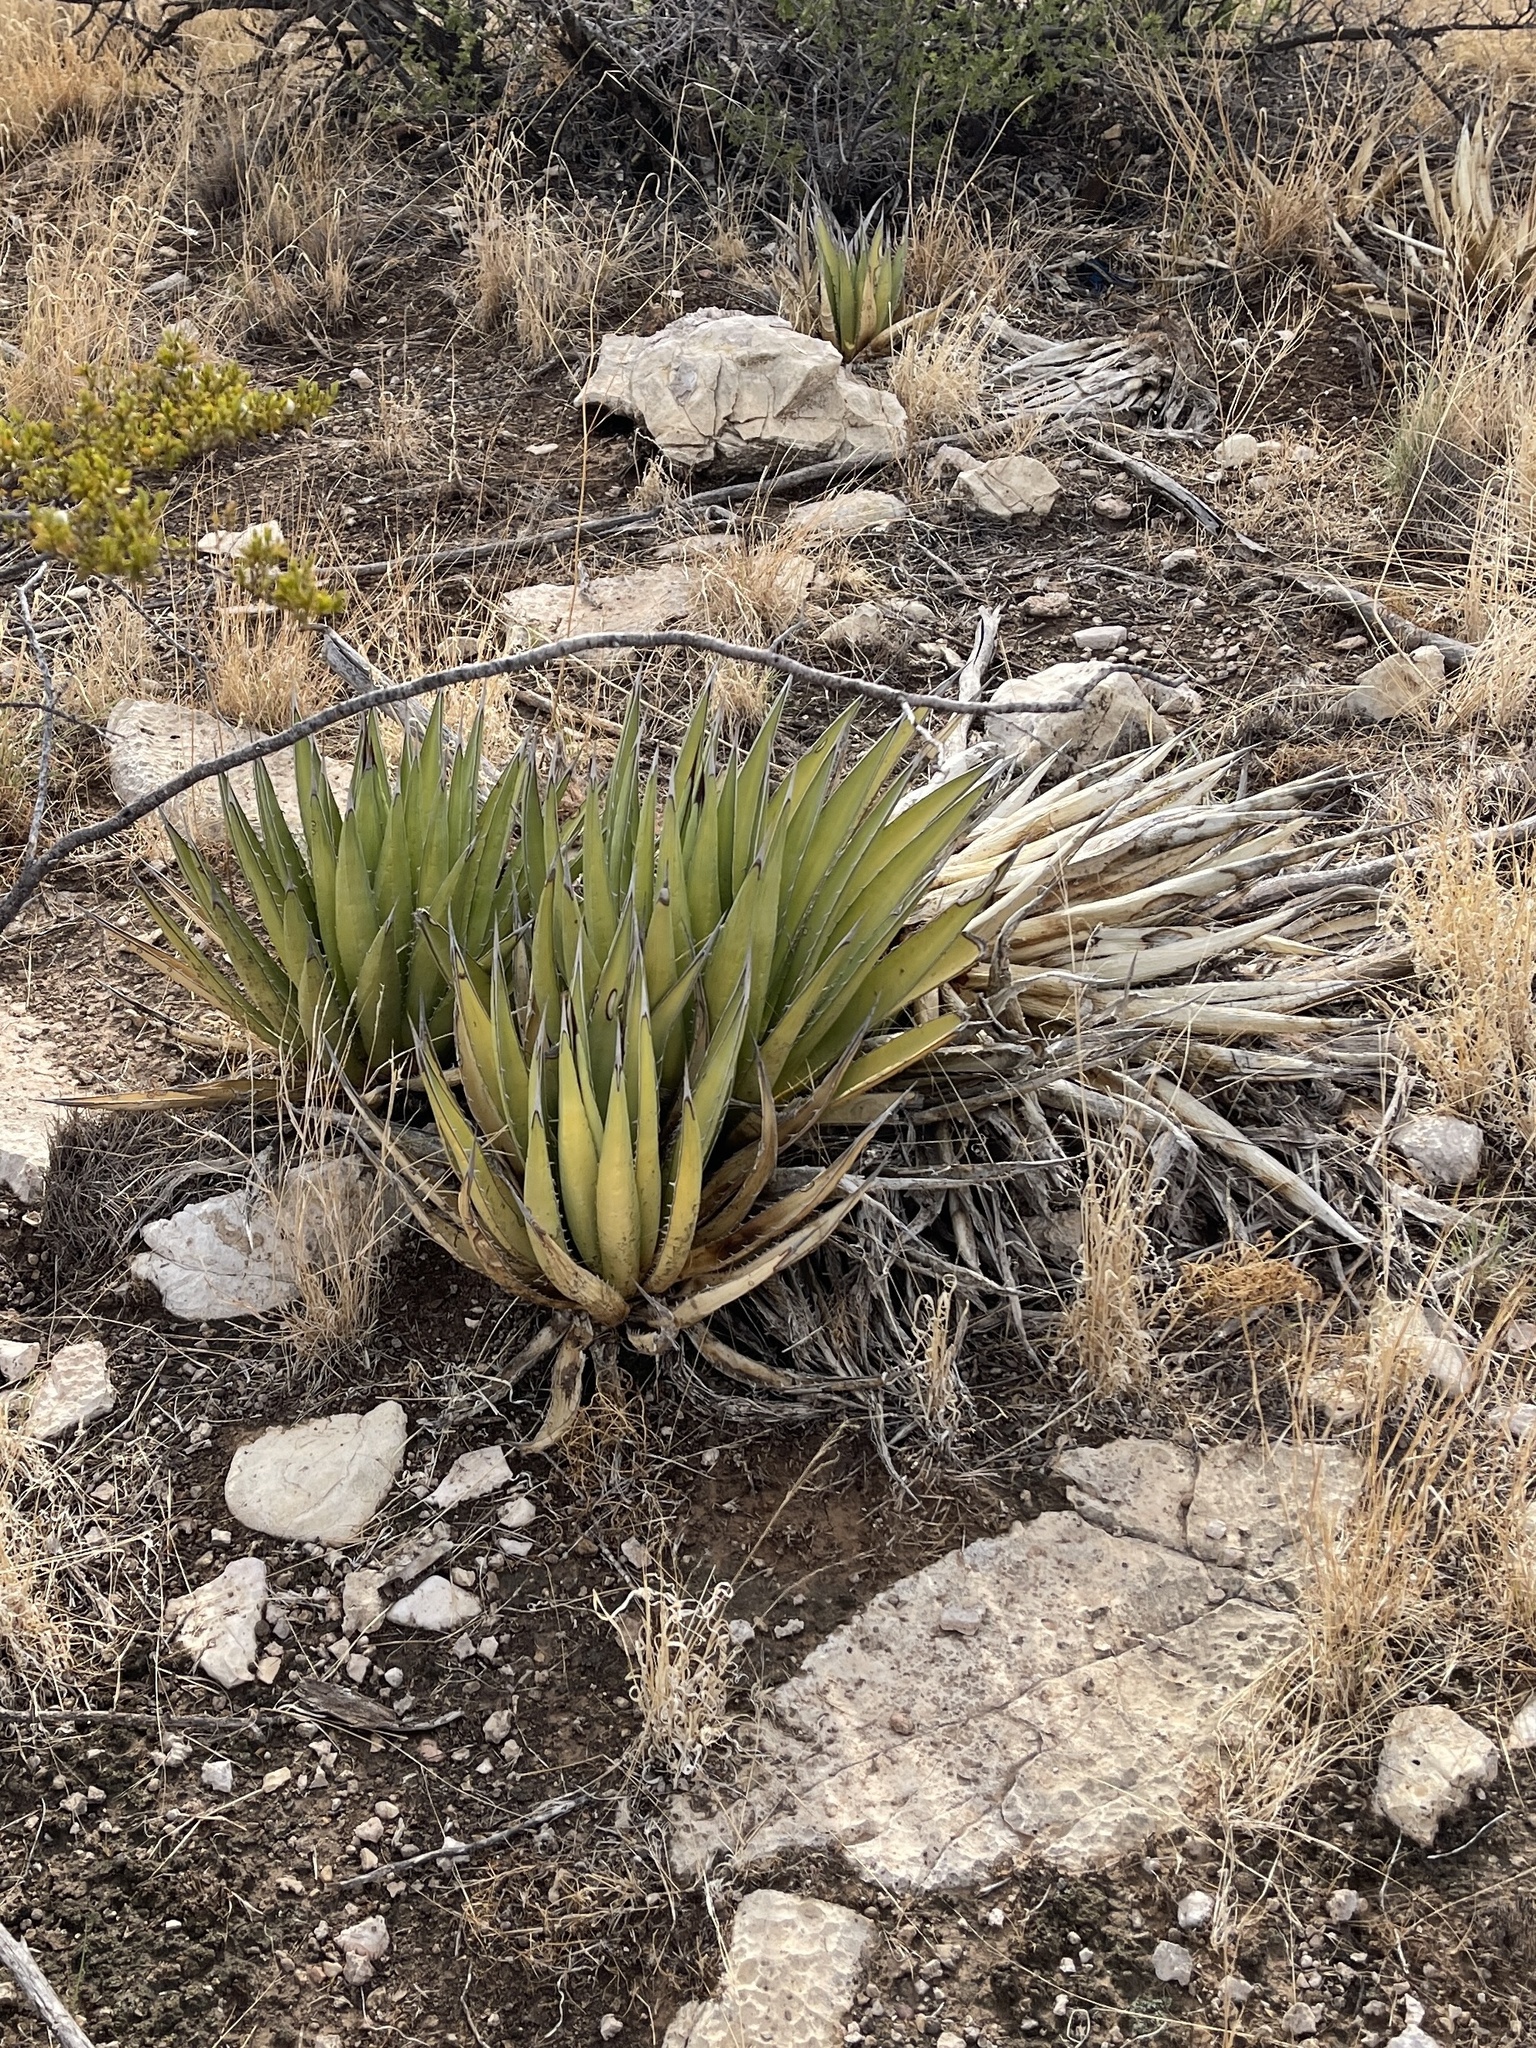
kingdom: Plantae
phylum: Tracheophyta
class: Liliopsida
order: Asparagales
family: Asparagaceae
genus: Agave
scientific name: Agave lechuguilla
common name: Lecheguilla agave
